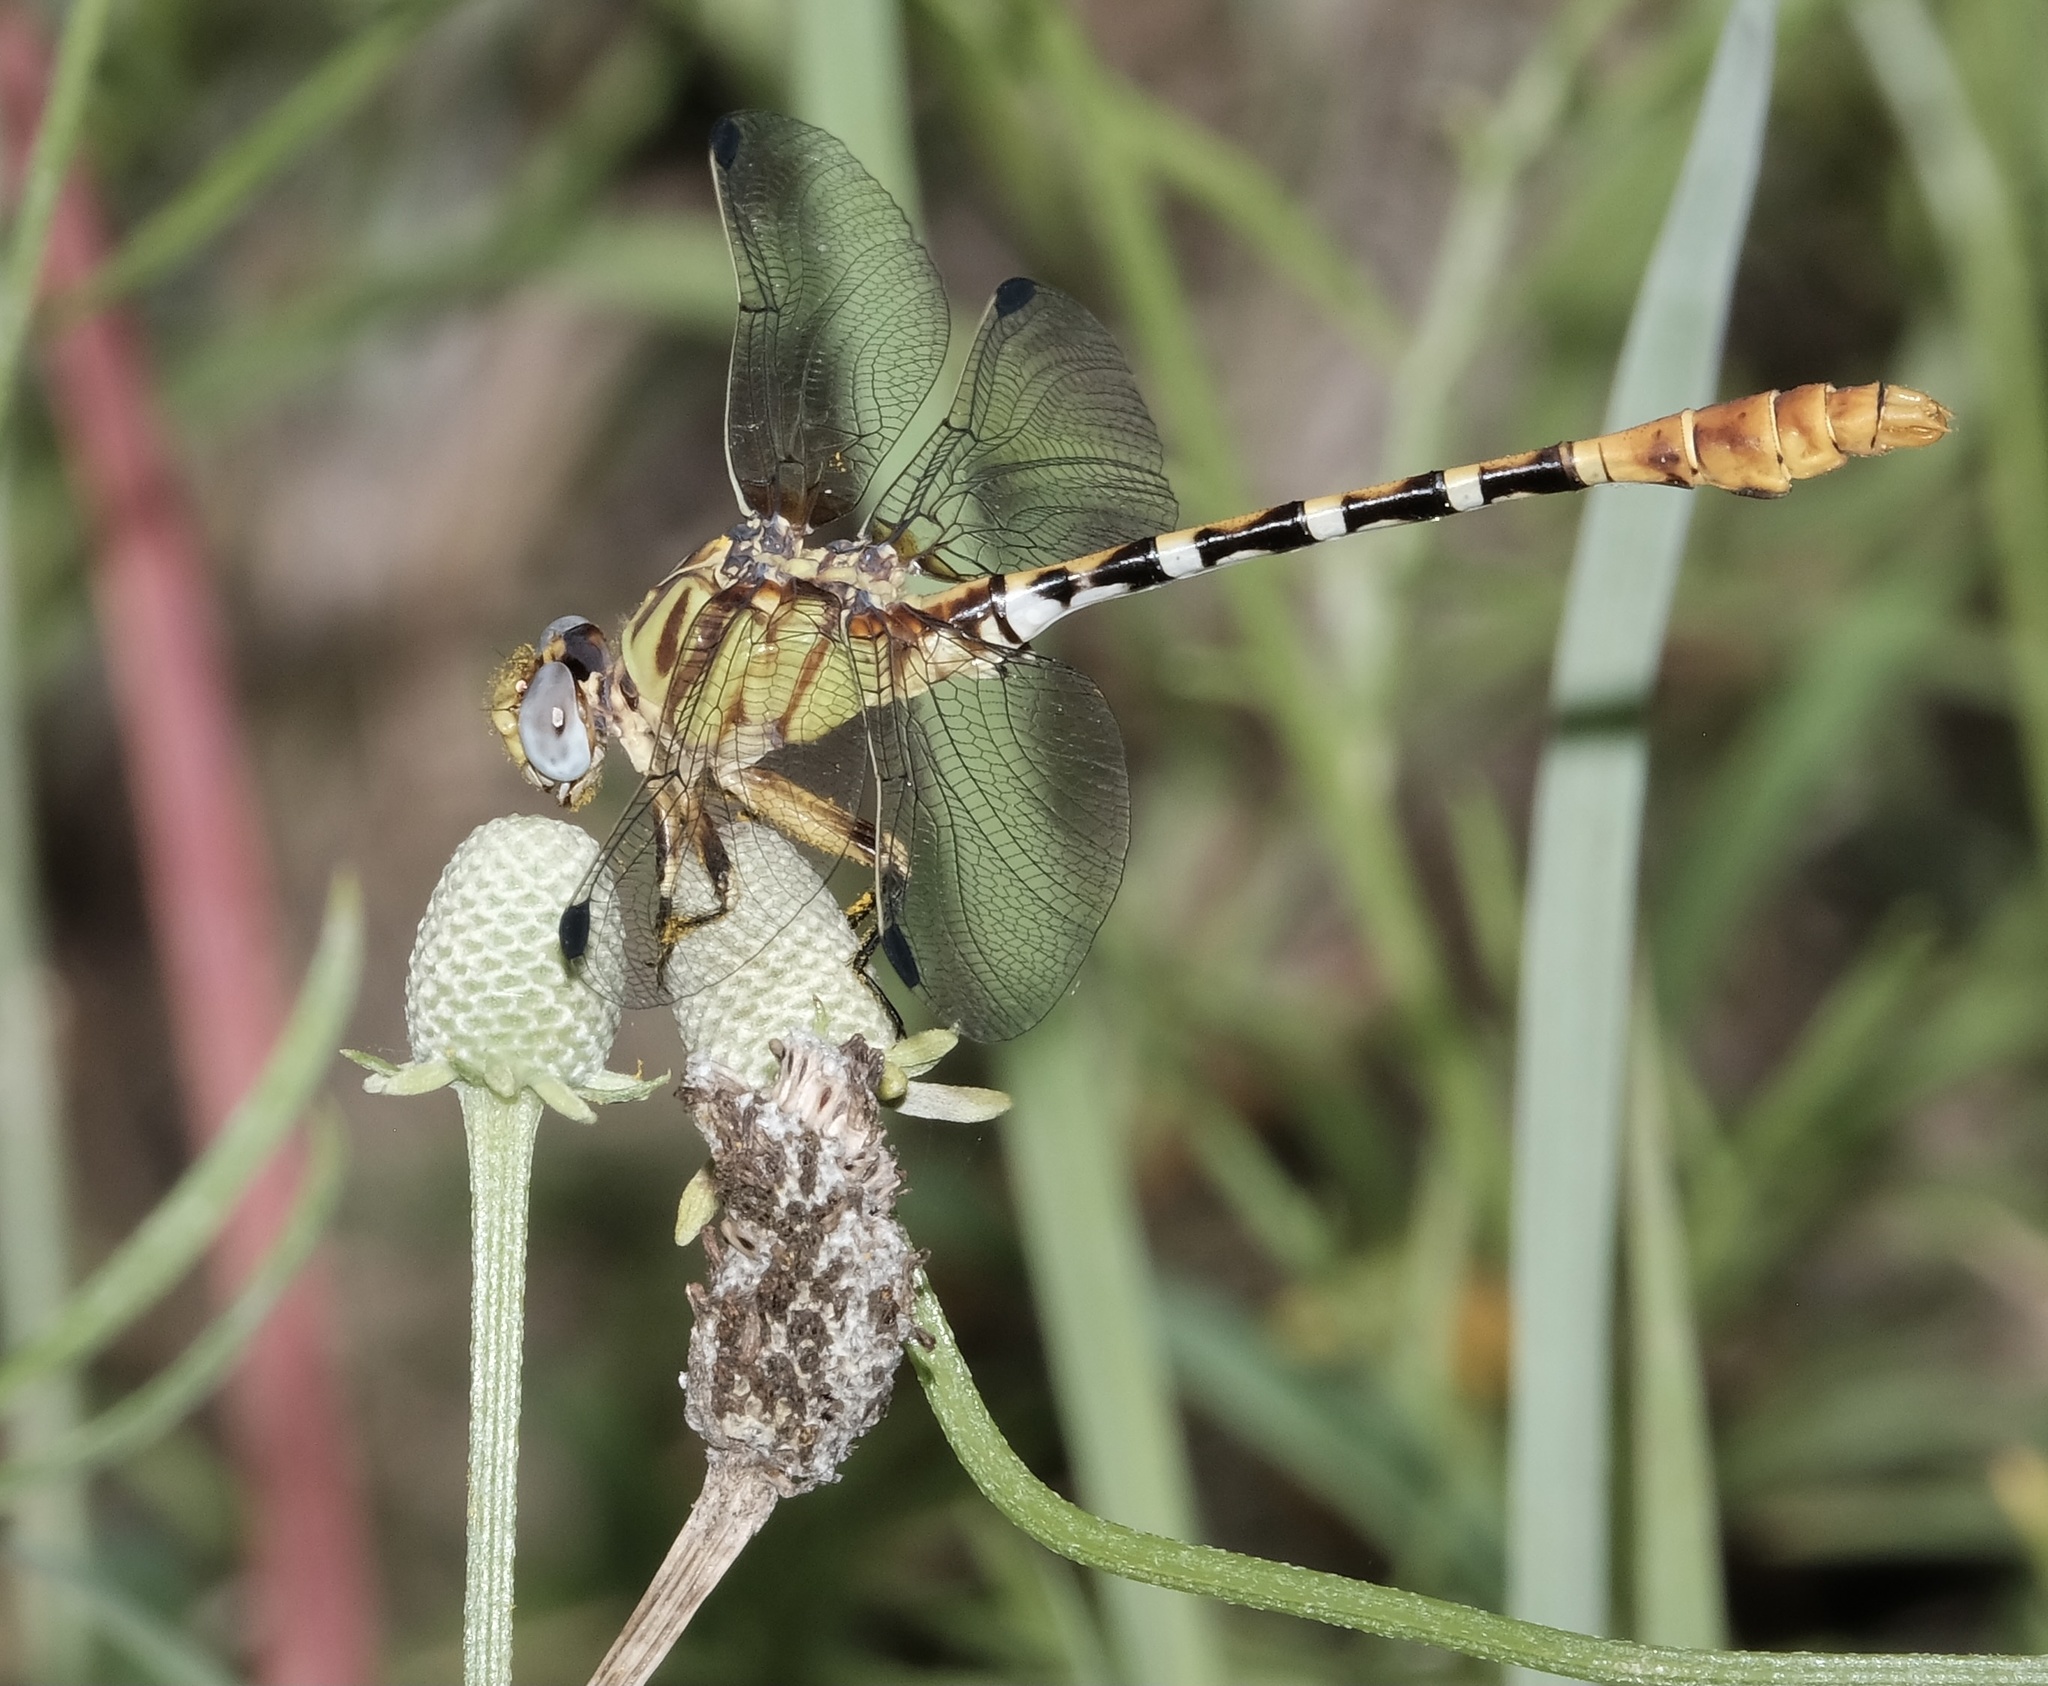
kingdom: Animalia
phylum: Arthropoda
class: Insecta
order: Odonata
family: Gomphidae
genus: Erpetogomphus
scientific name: Erpetogomphus designatus
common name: Eastern ringtail
